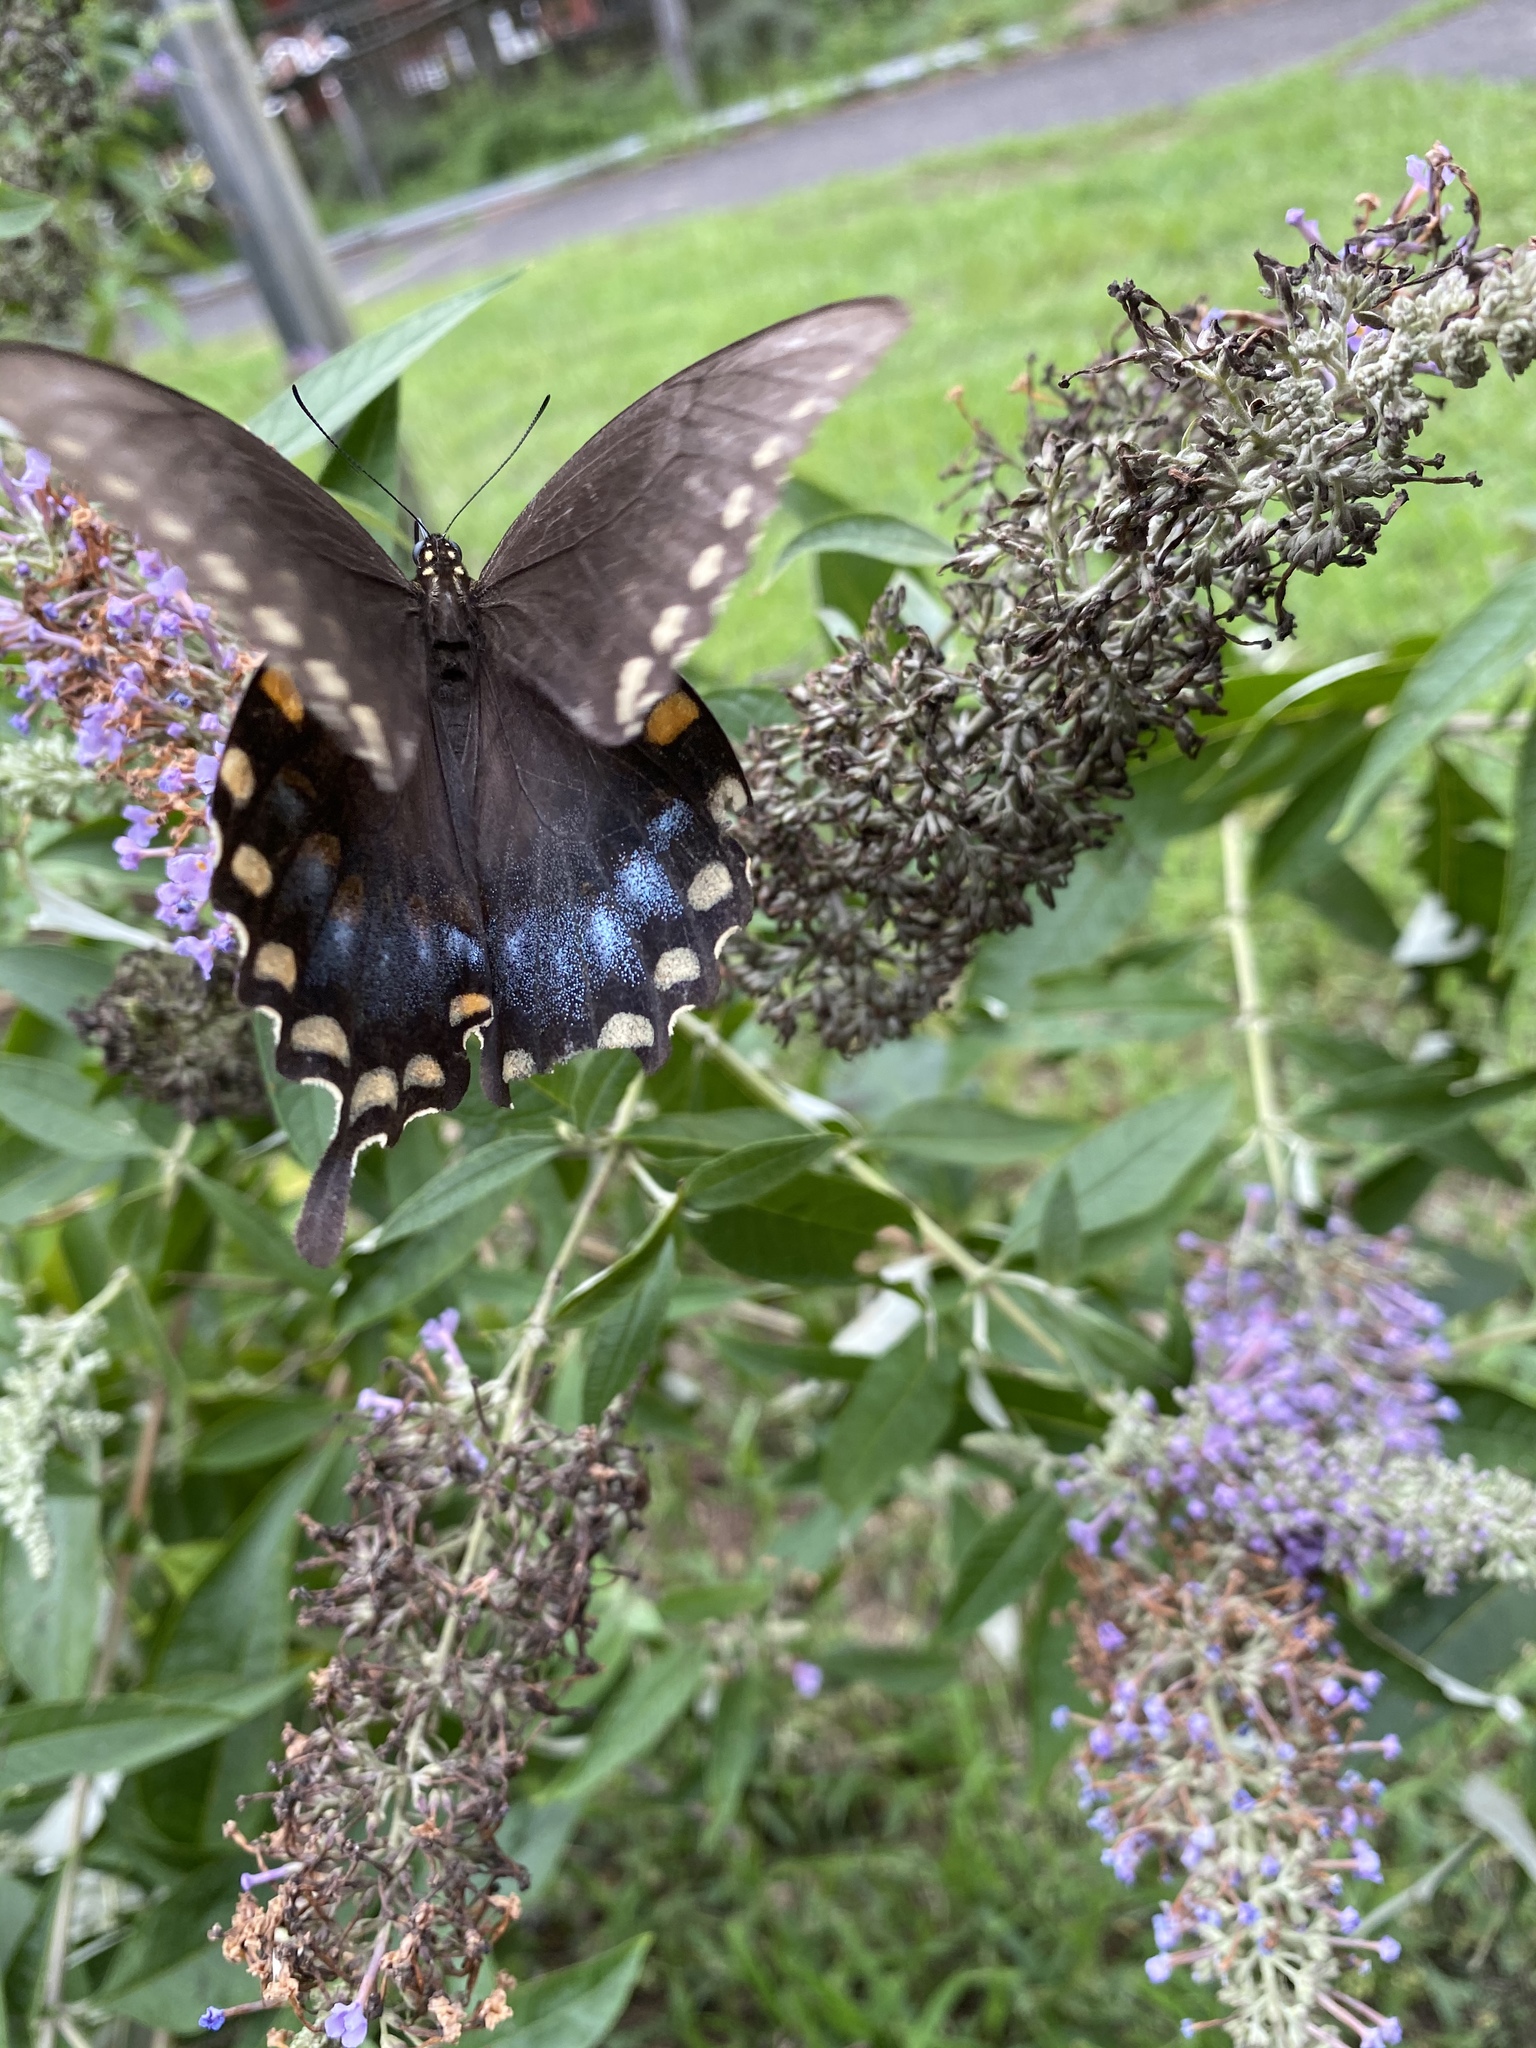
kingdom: Animalia
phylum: Arthropoda
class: Insecta
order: Lepidoptera
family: Papilionidae
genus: Papilio
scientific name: Papilio troilus
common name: Spicebush swallowtail
